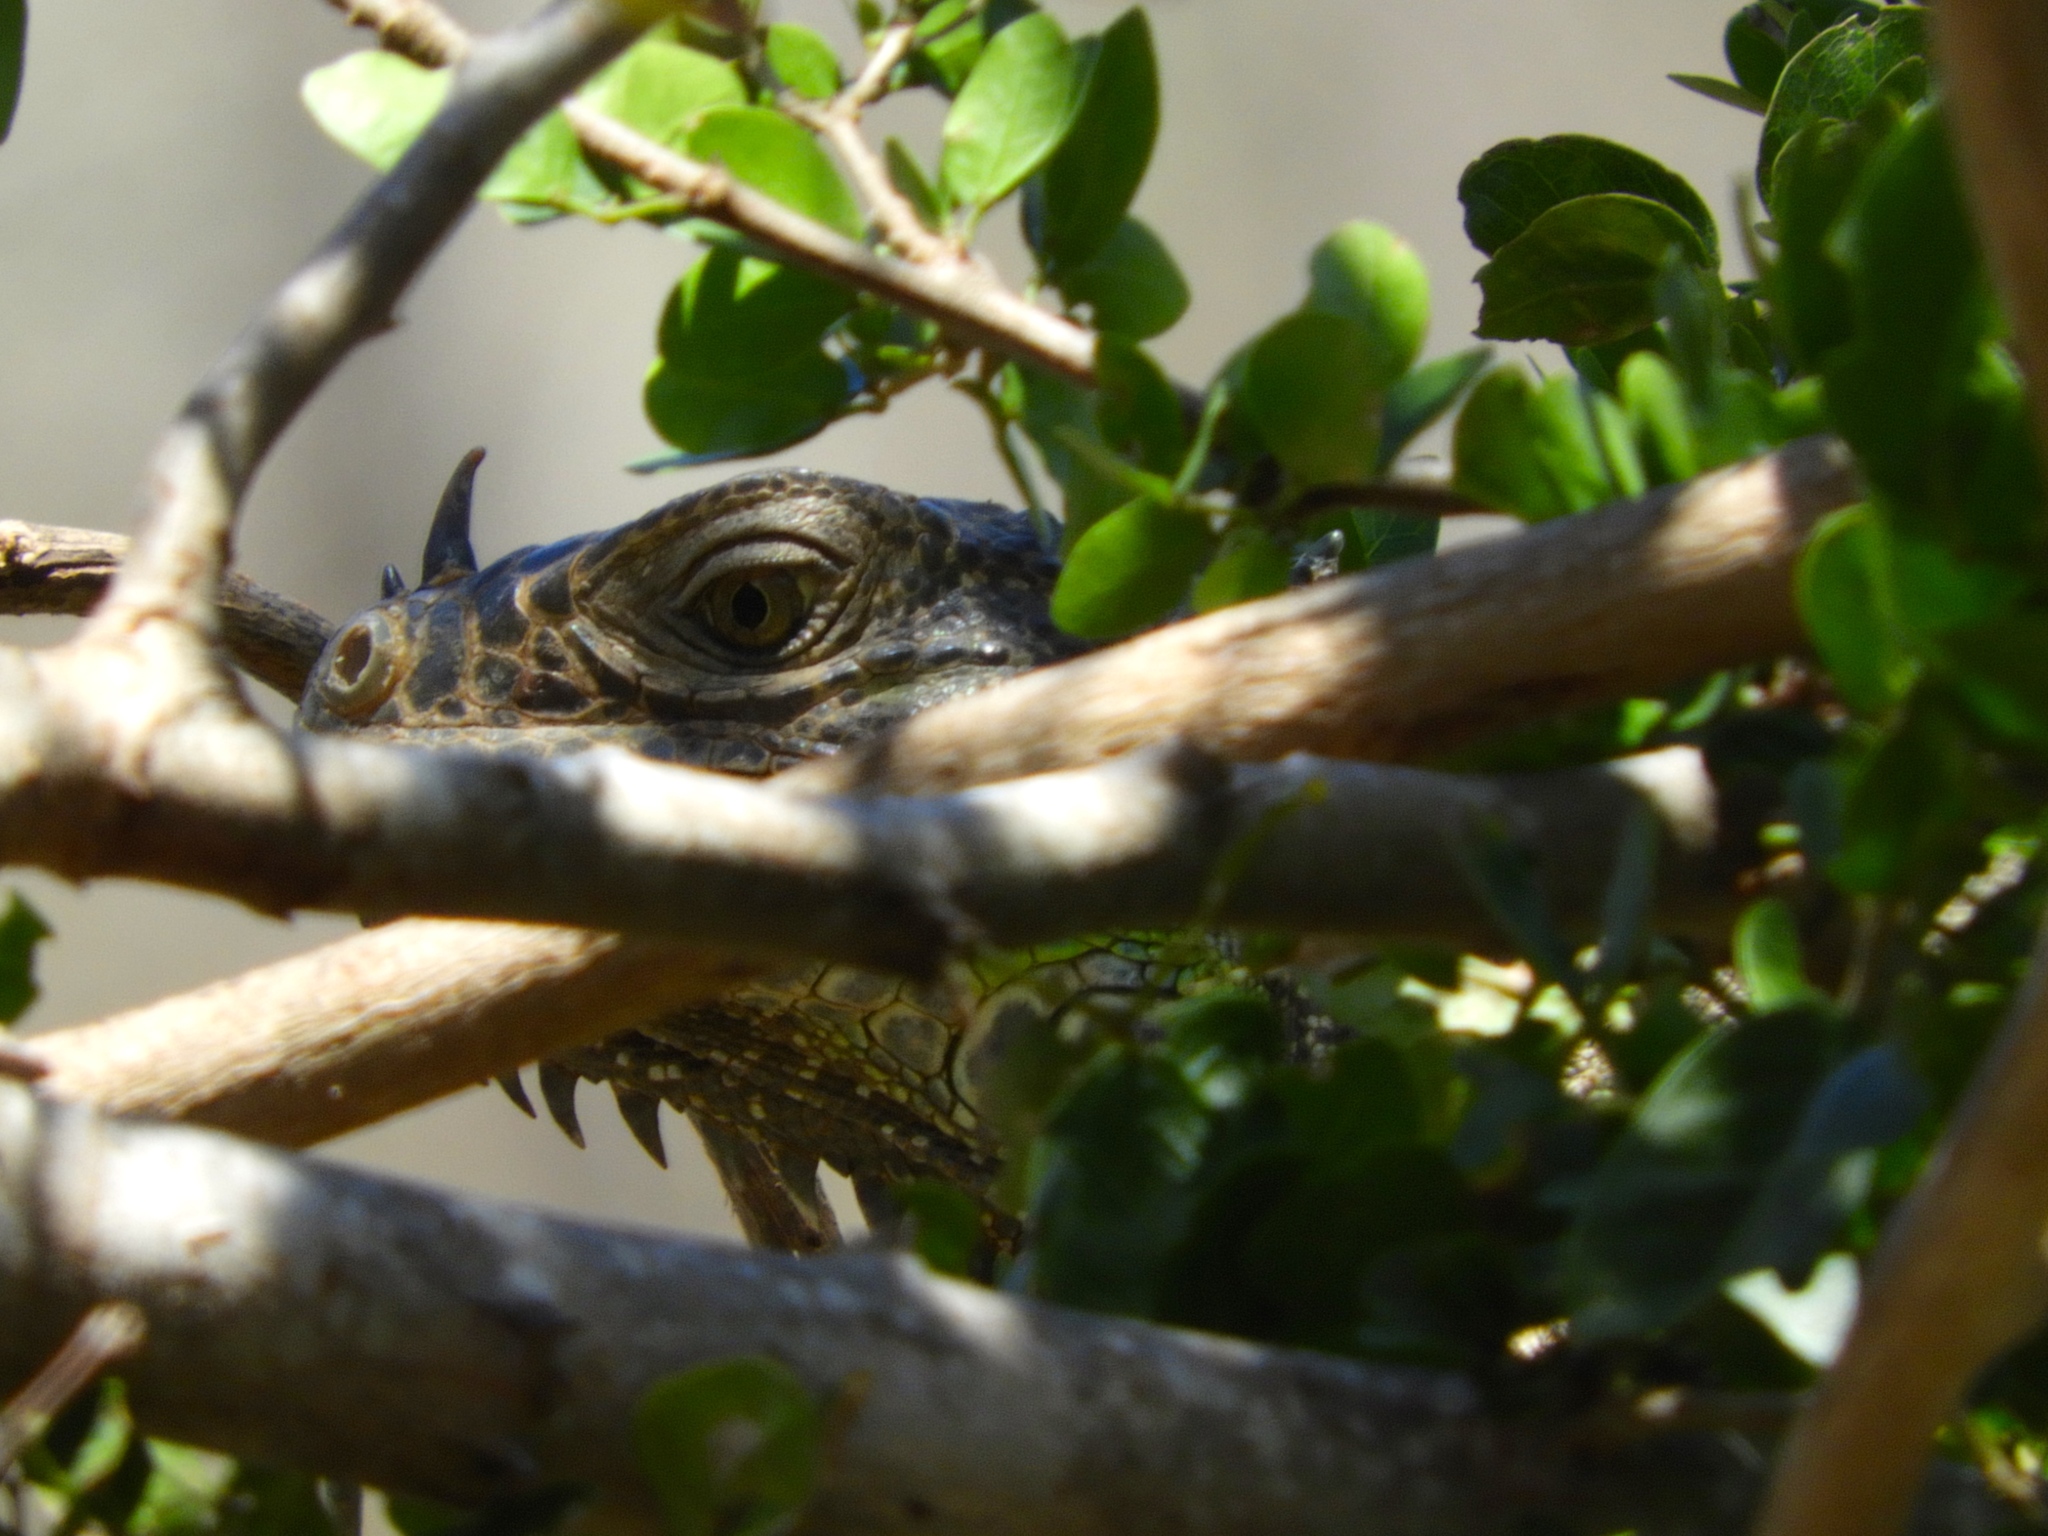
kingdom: Animalia
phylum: Chordata
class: Squamata
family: Iguanidae
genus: Iguana
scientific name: Iguana iguana
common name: Green iguana
